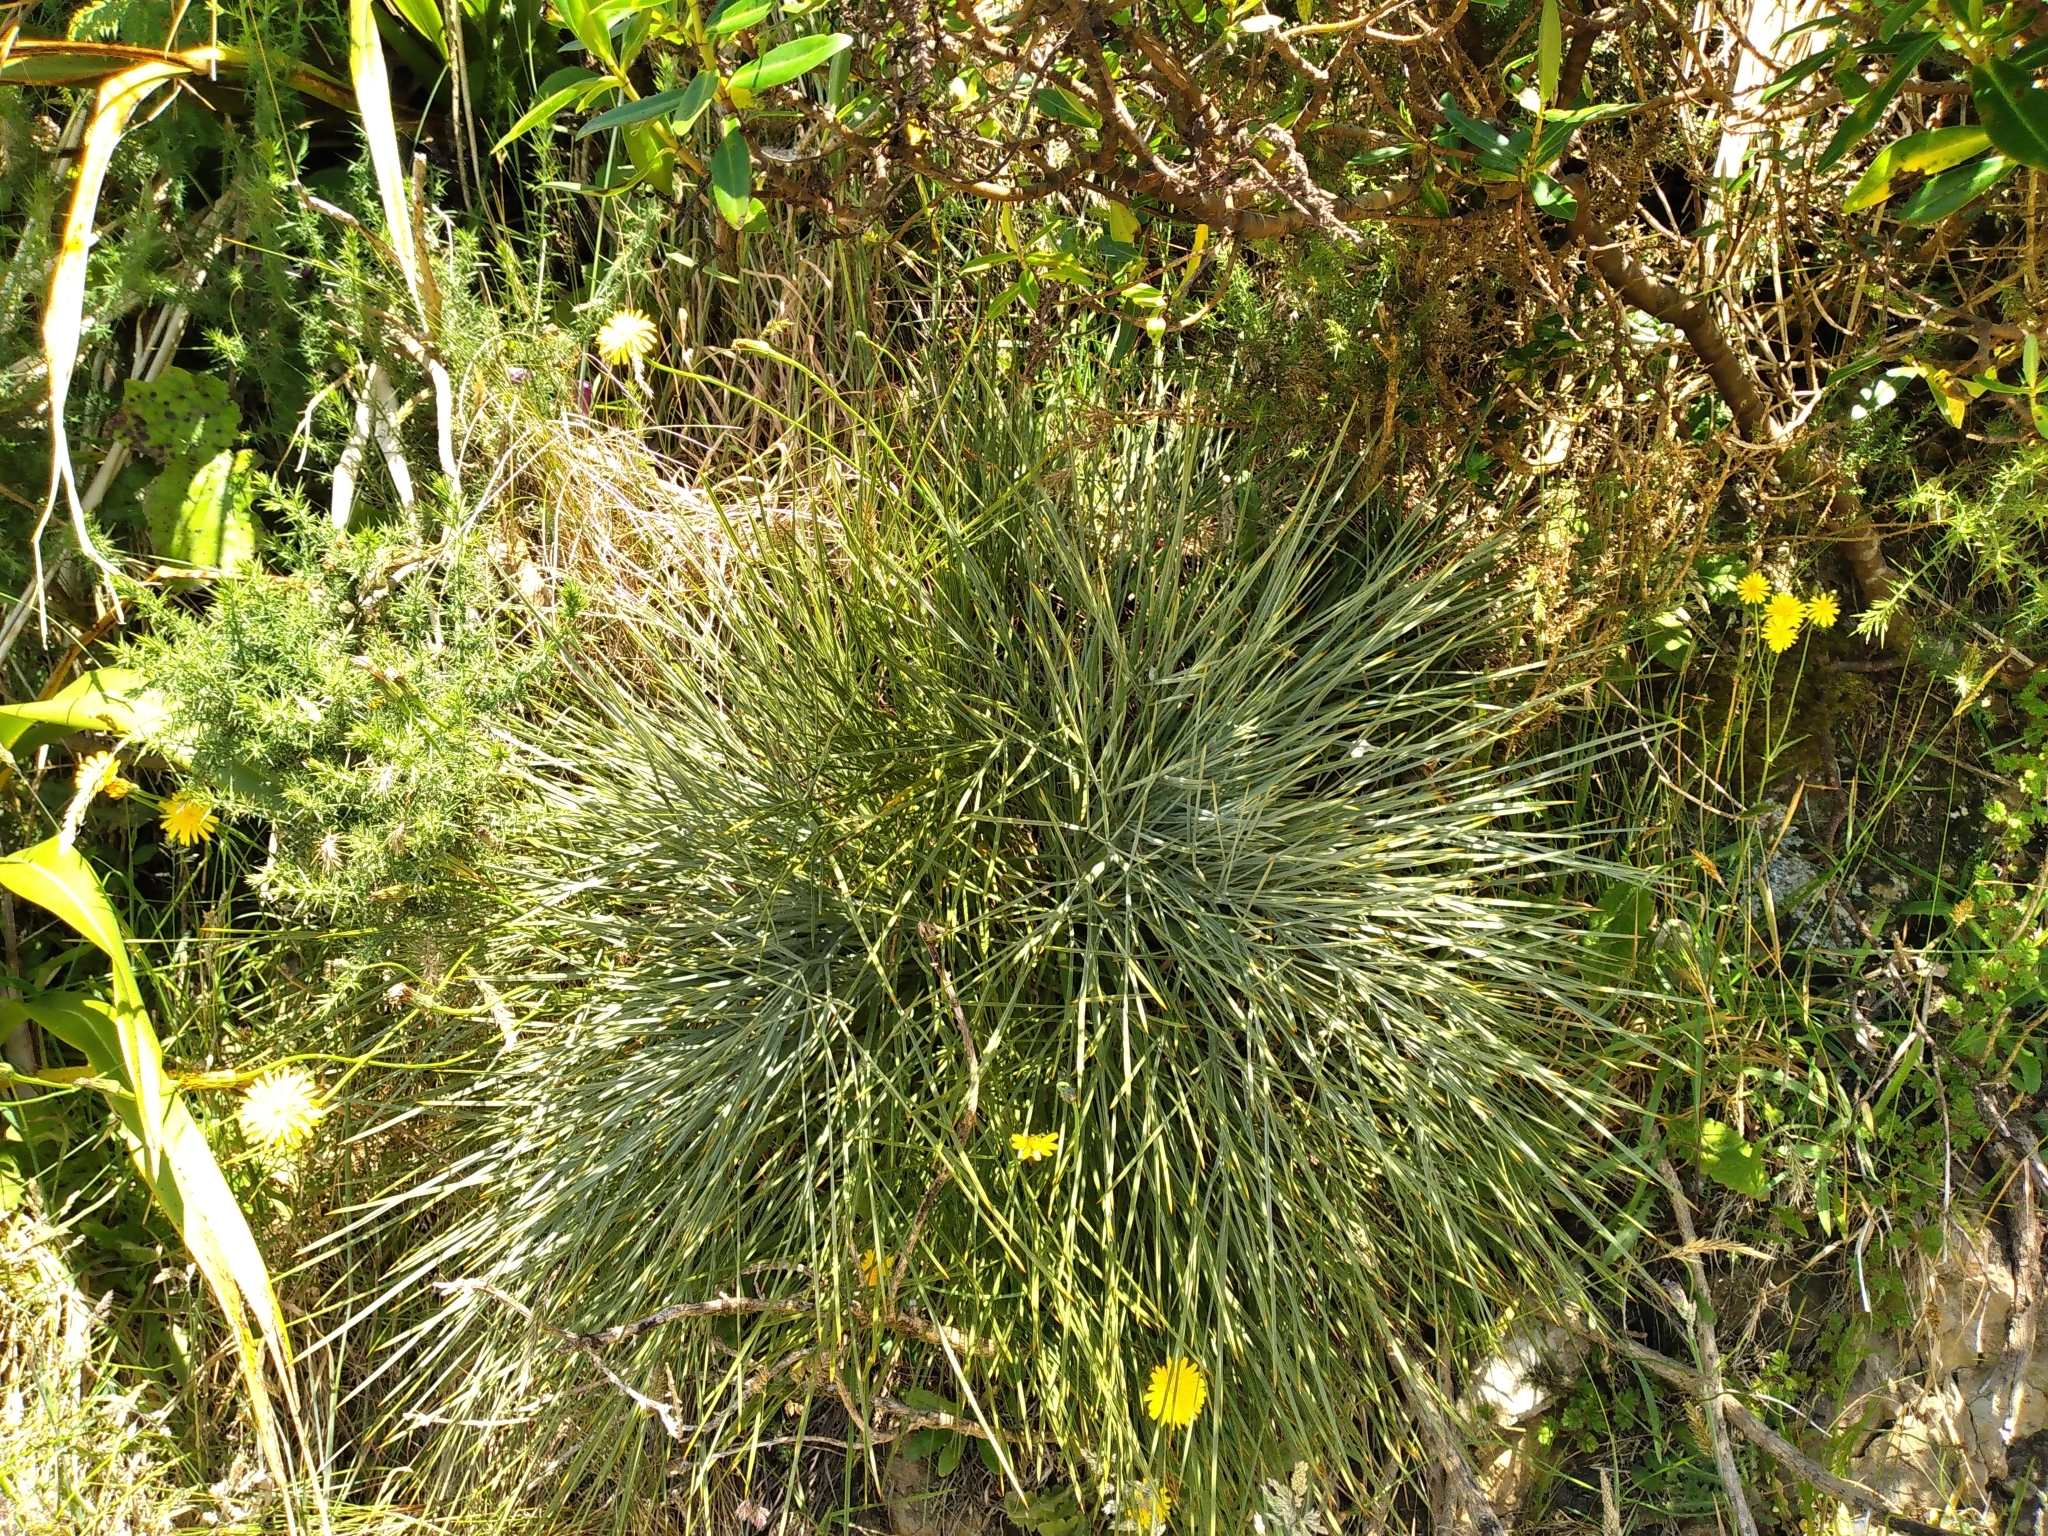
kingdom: Plantae
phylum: Tracheophyta
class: Magnoliopsida
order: Apiales
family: Apiaceae
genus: Aciphylla
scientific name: Aciphylla squarrosa
